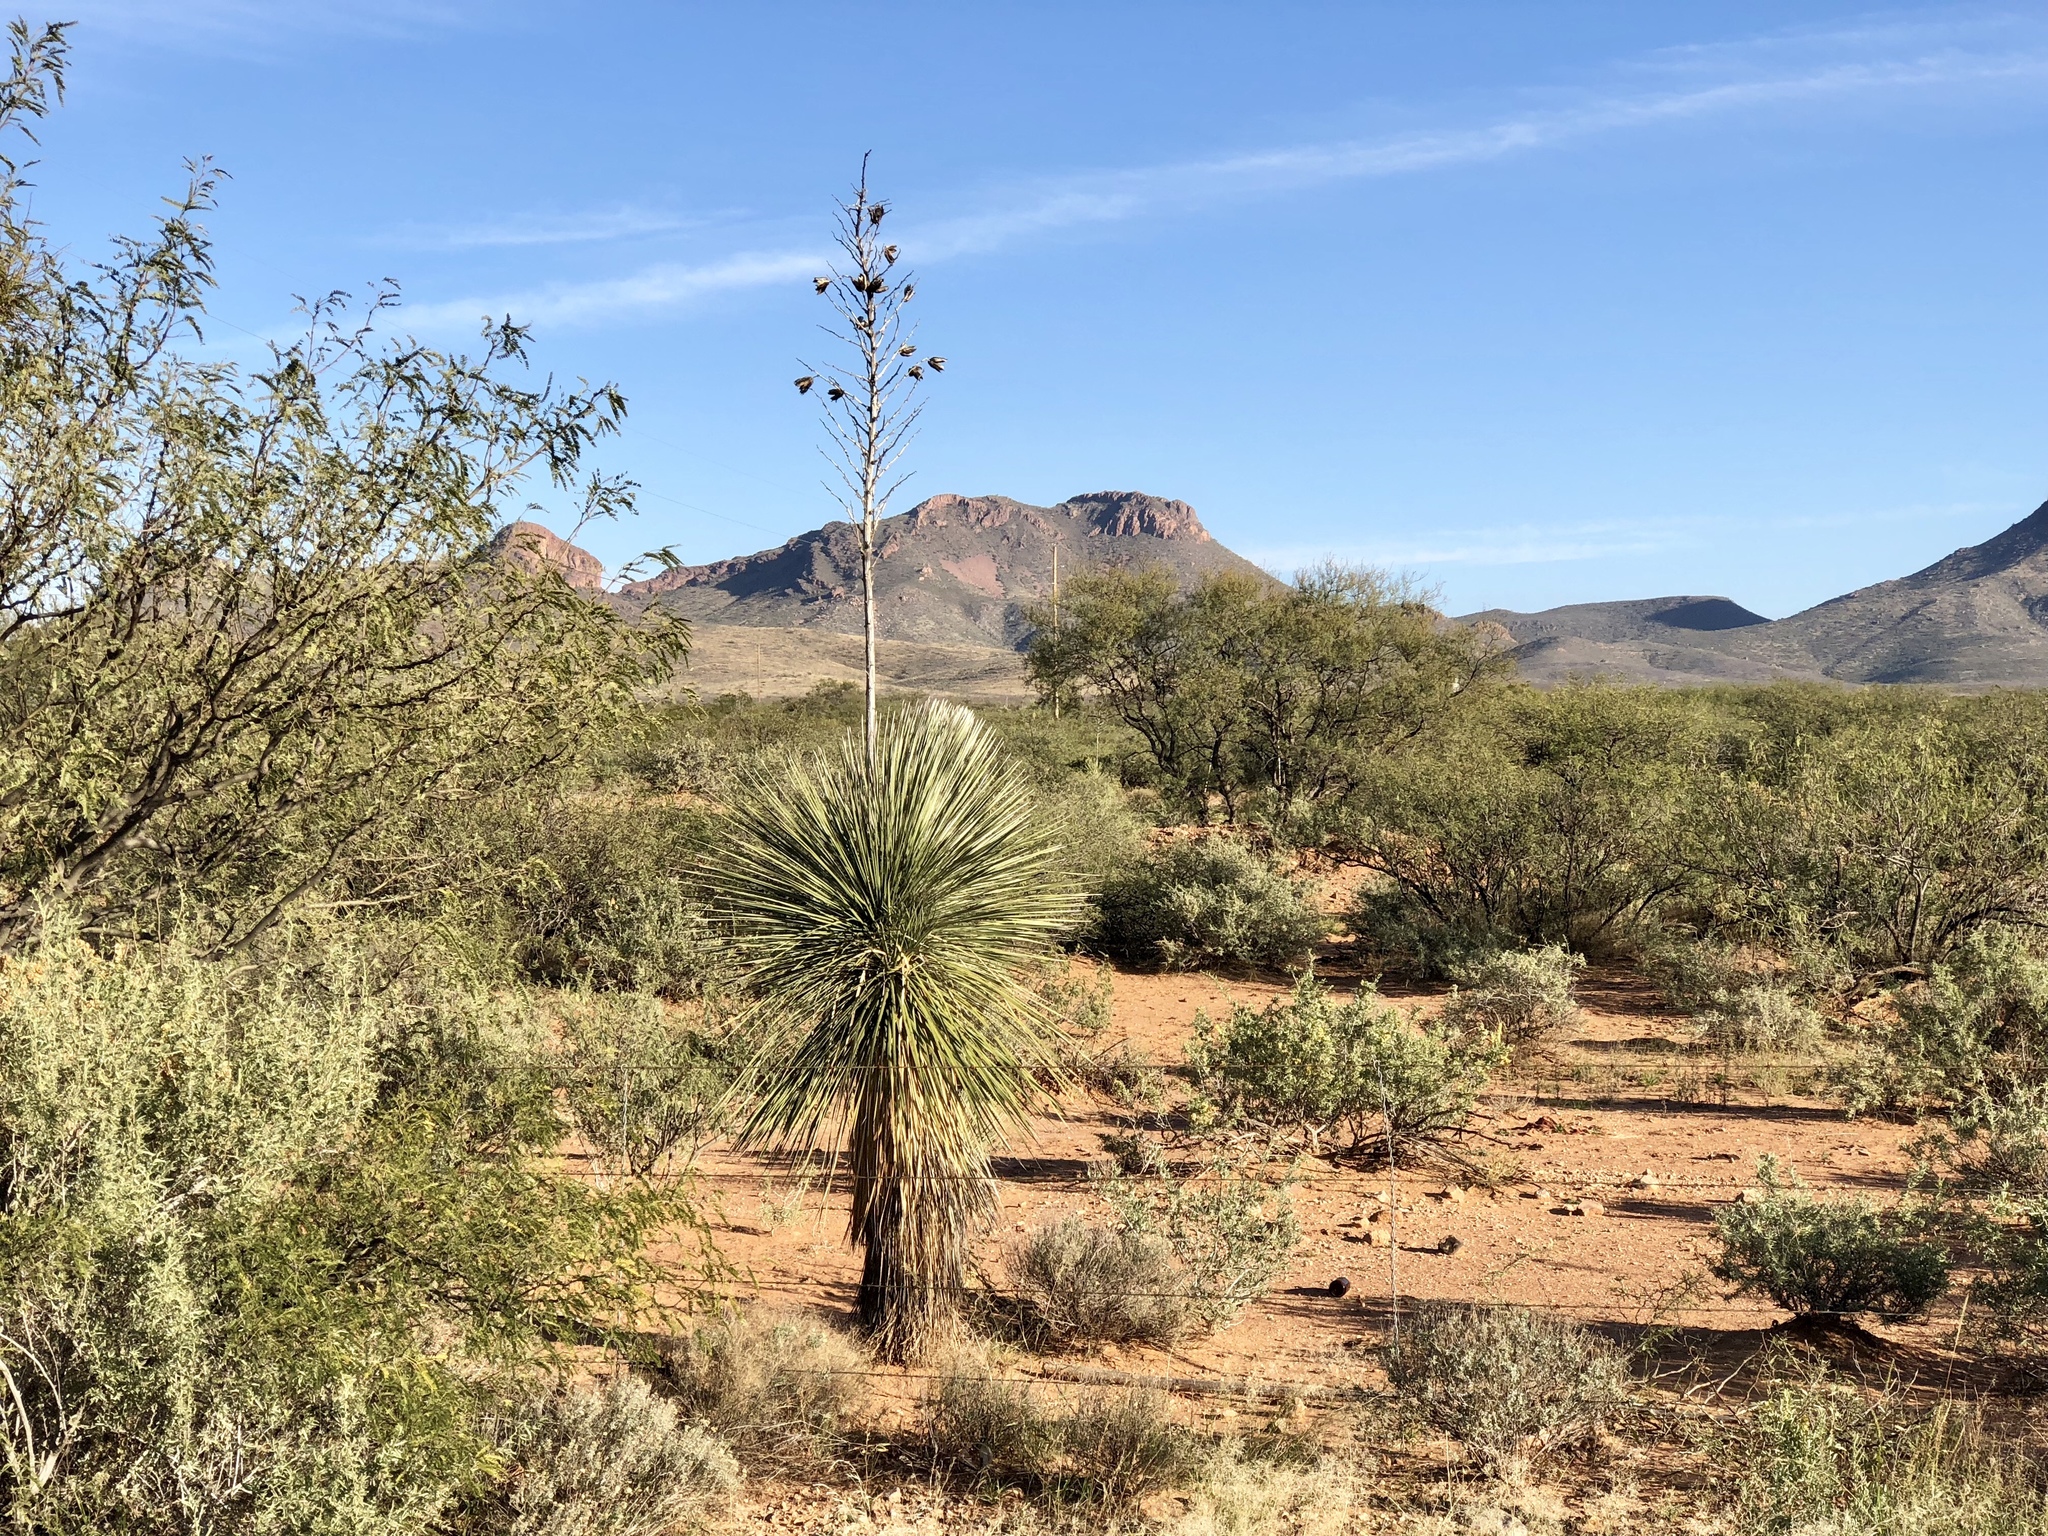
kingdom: Plantae
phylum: Tracheophyta
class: Liliopsida
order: Asparagales
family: Asparagaceae
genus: Yucca
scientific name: Yucca elata
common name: Palmella
